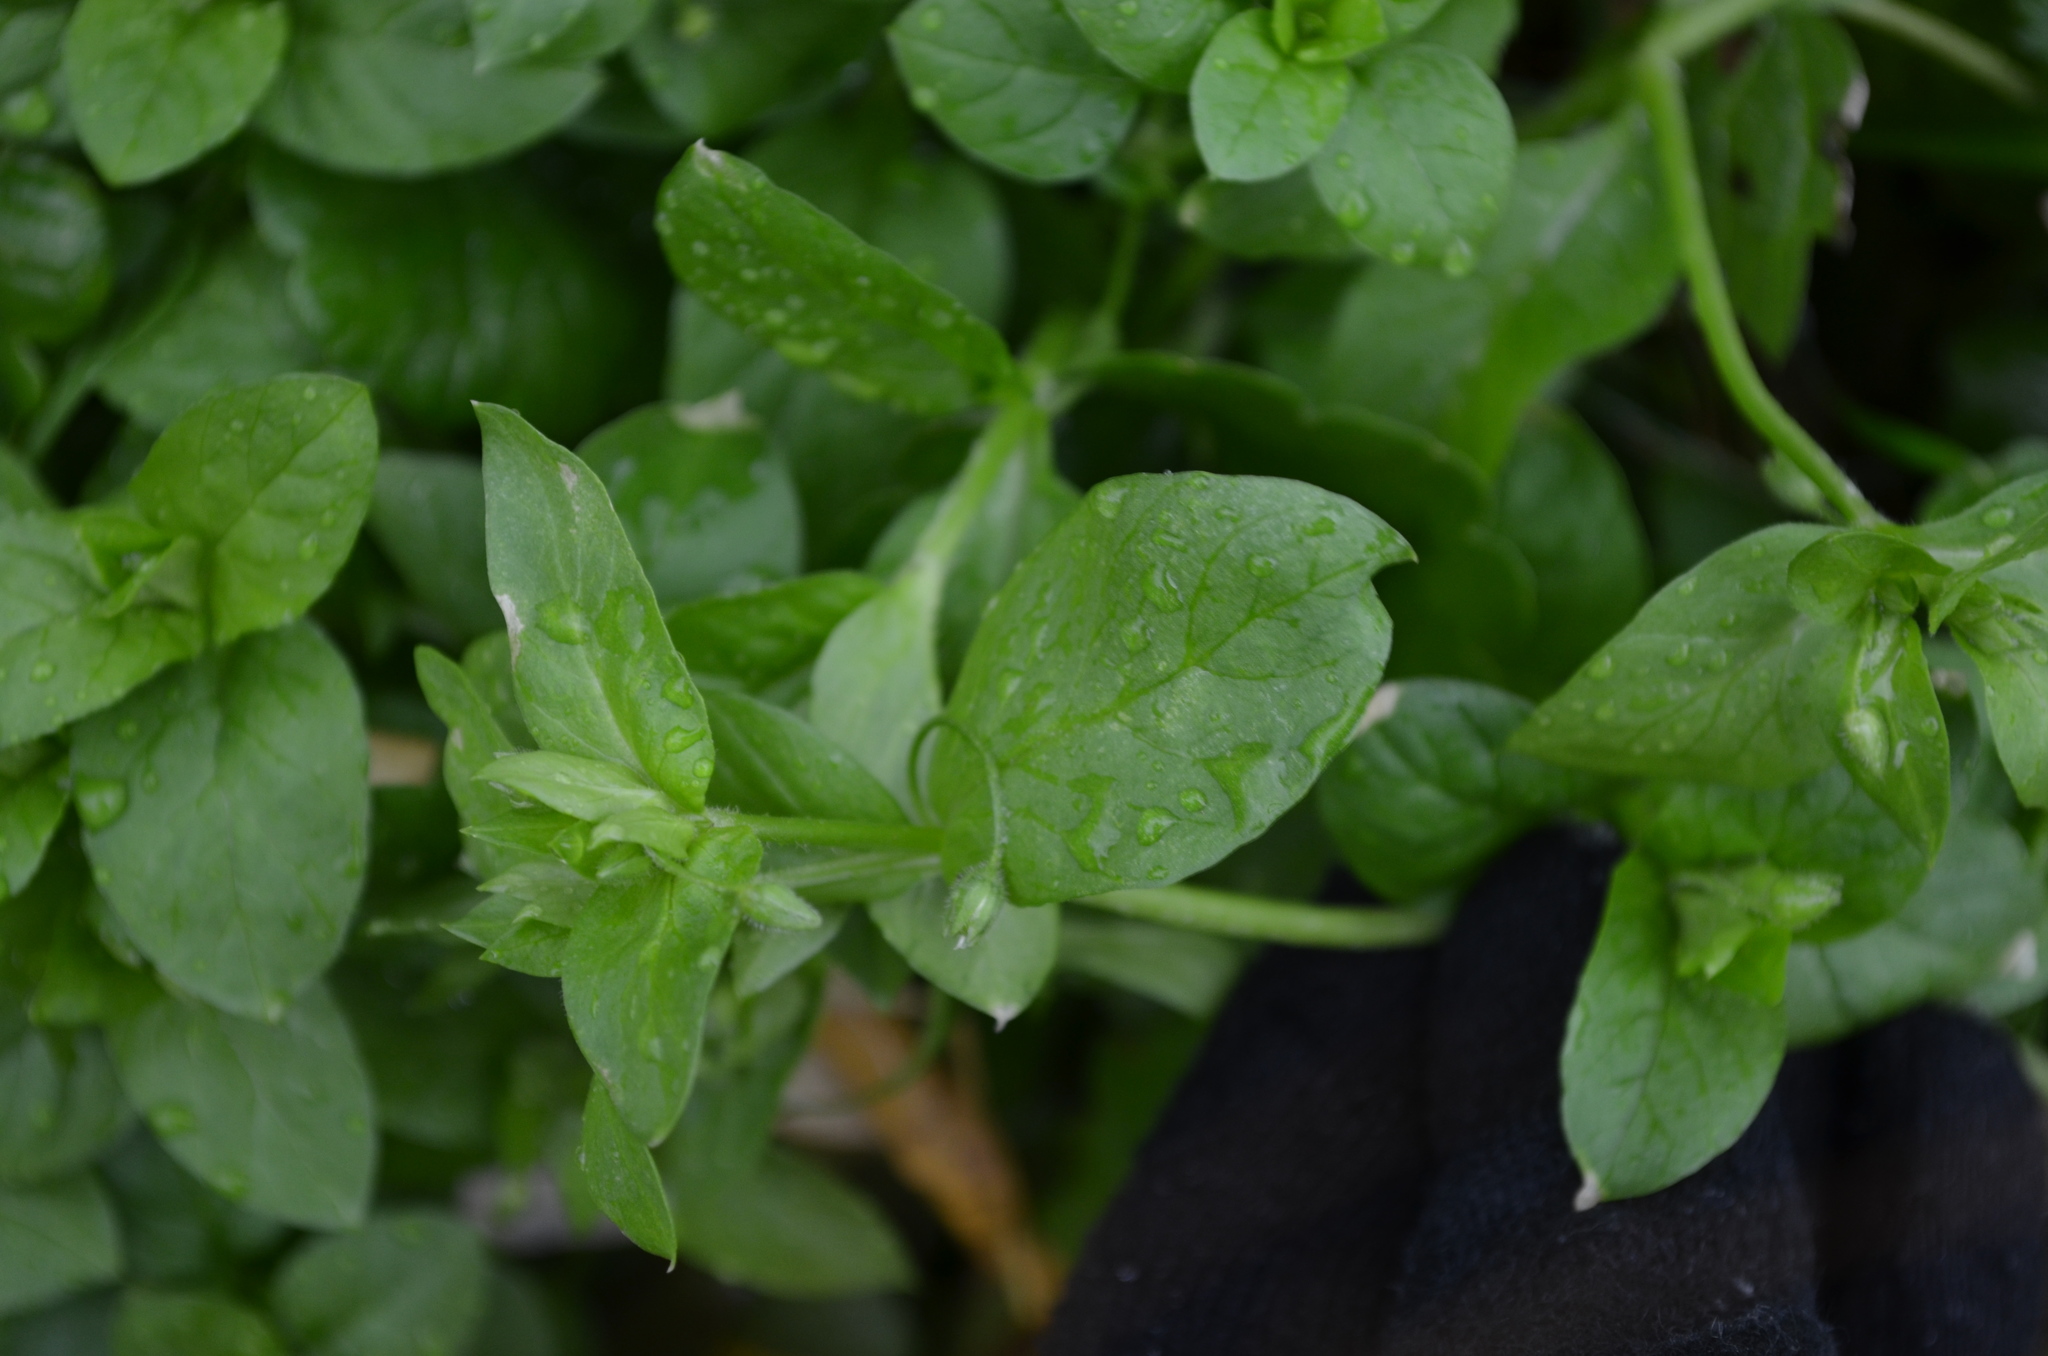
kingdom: Plantae
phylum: Tracheophyta
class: Magnoliopsida
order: Caryophyllales
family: Caryophyllaceae
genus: Stellaria
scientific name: Stellaria media
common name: Common chickweed
